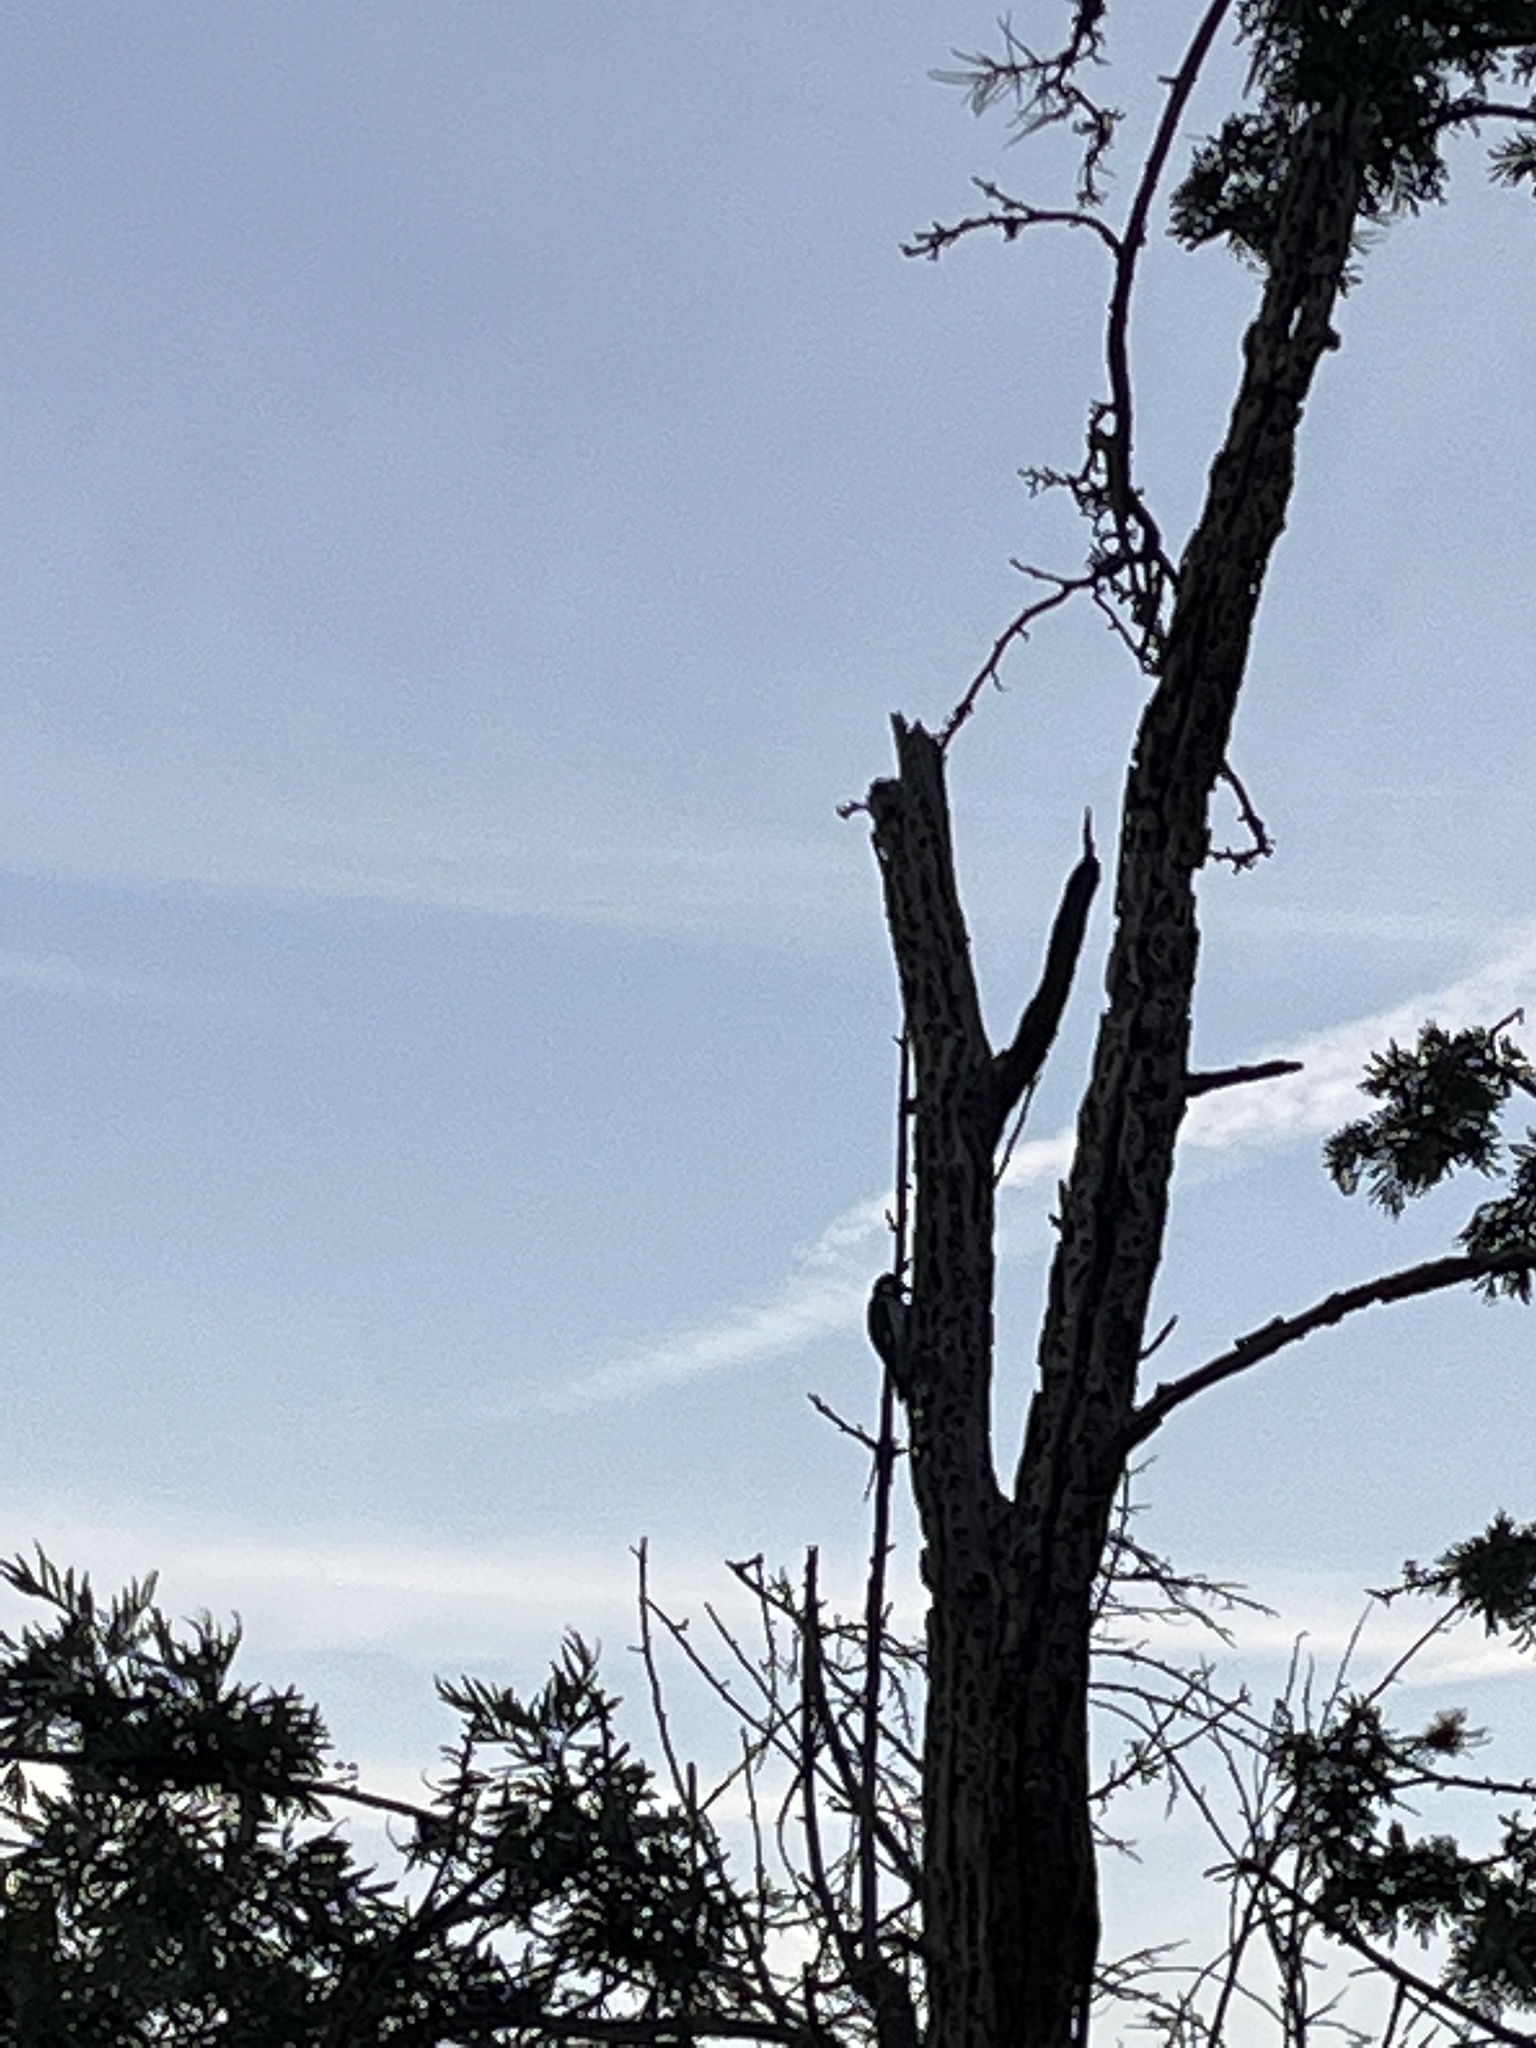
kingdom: Animalia
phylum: Chordata
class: Aves
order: Piciformes
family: Picidae
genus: Melanerpes
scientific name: Melanerpes formicivorus
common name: Acorn woodpecker
